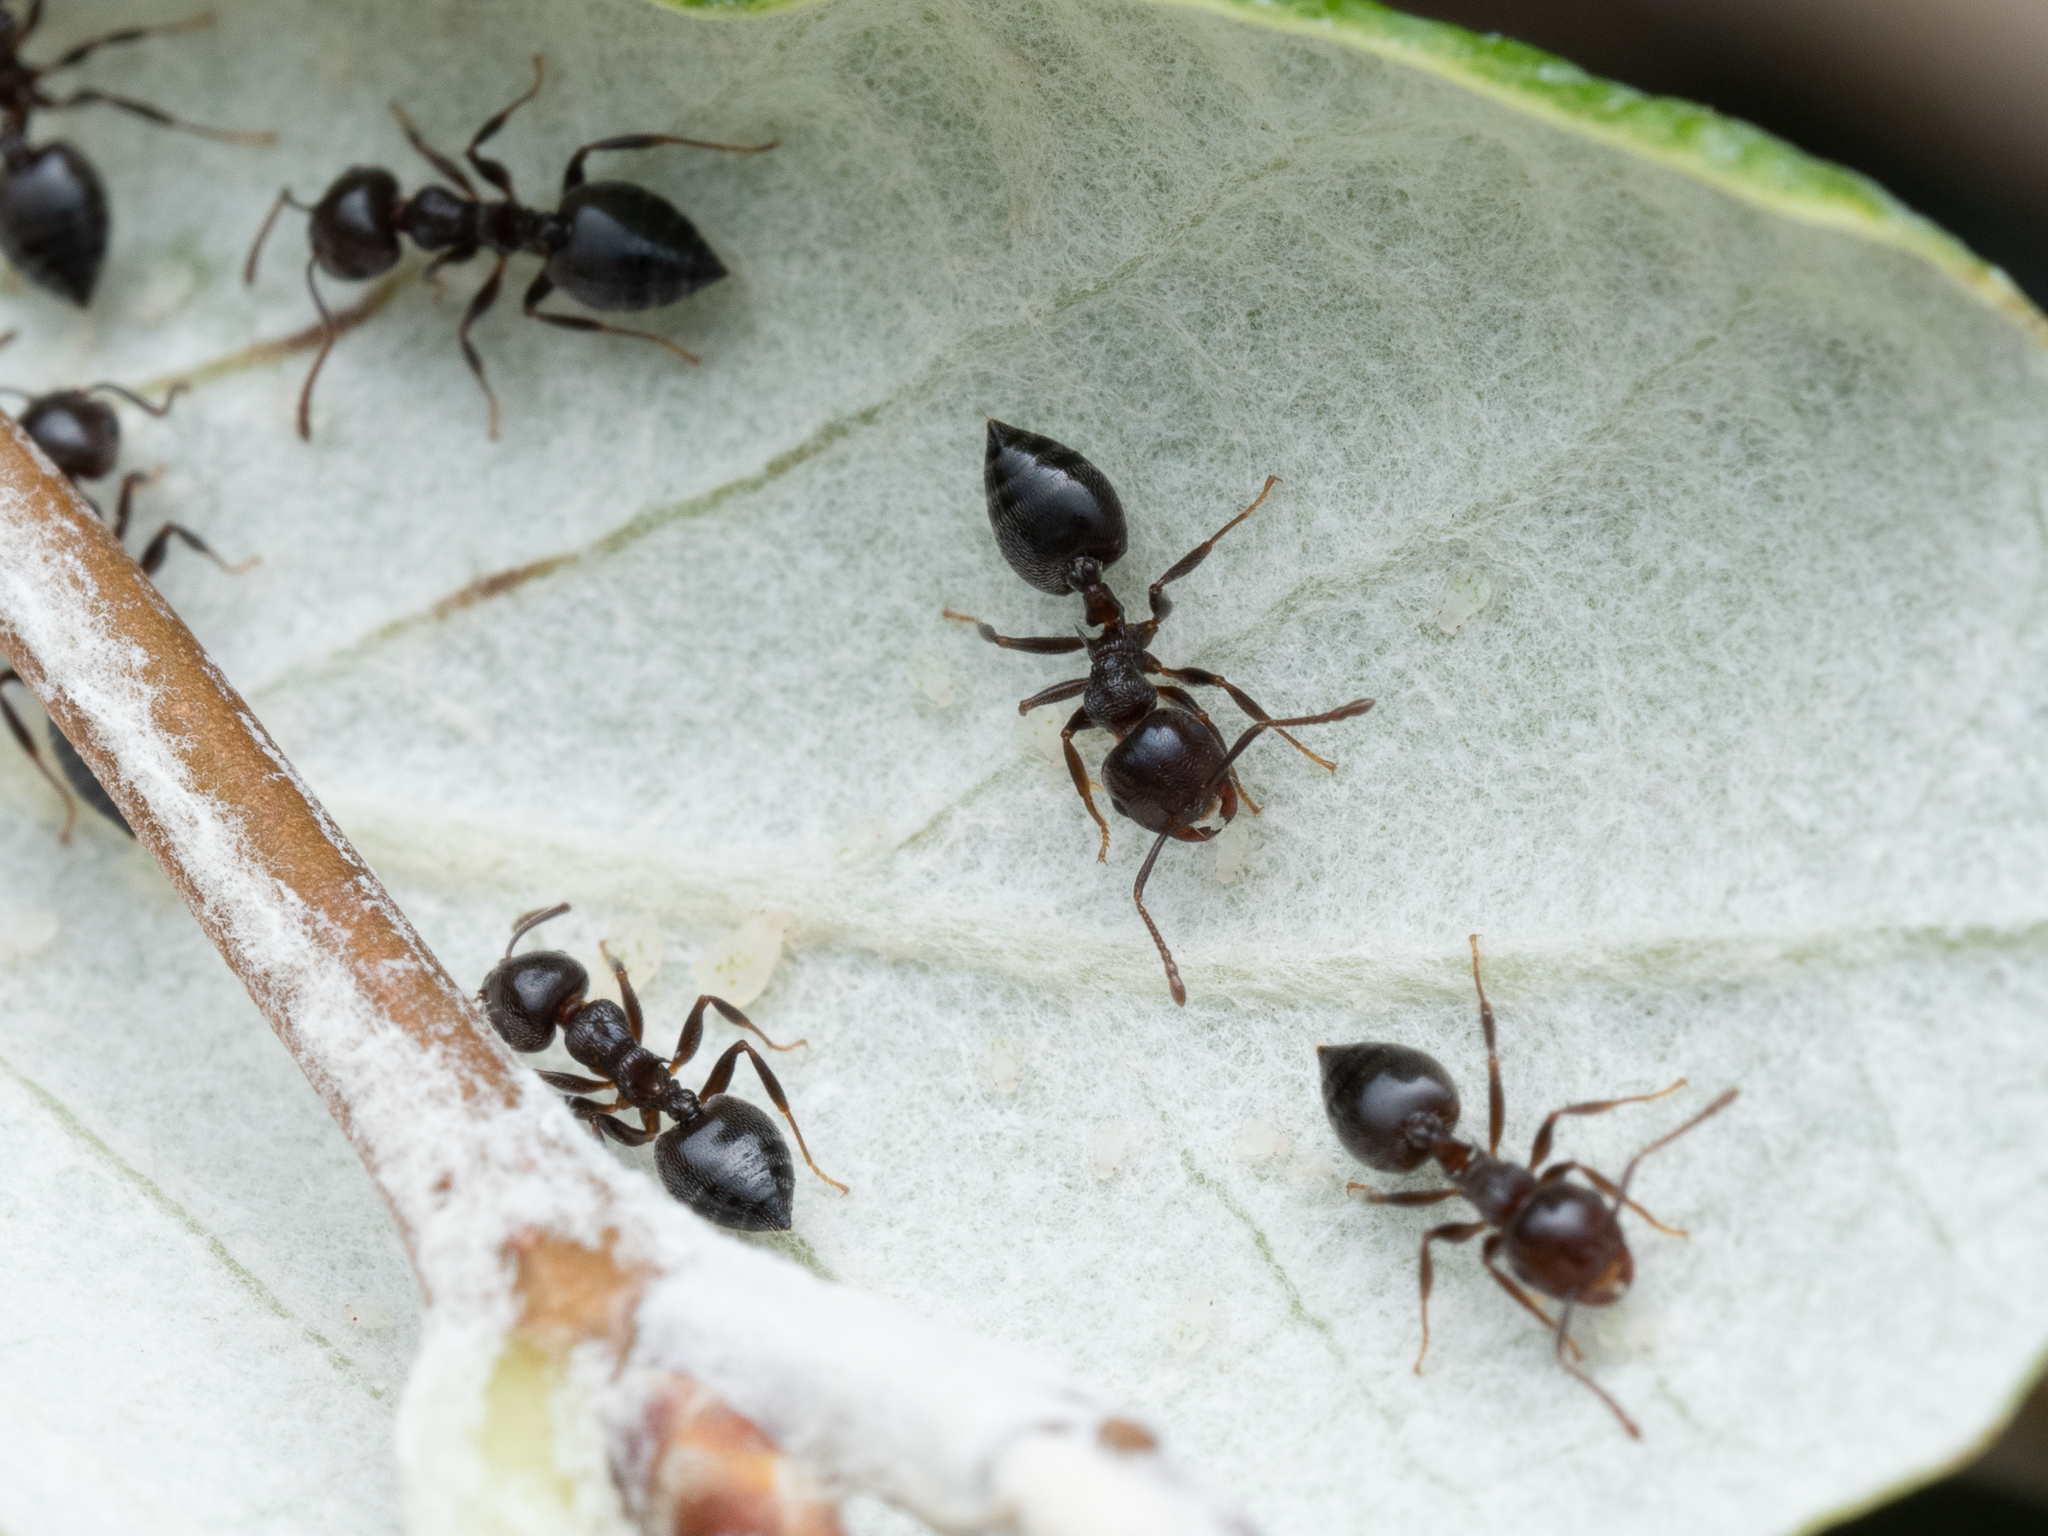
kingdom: Animalia
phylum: Arthropoda
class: Insecta
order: Hymenoptera
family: Formicidae
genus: Crematogaster
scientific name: Crematogaster ionia
